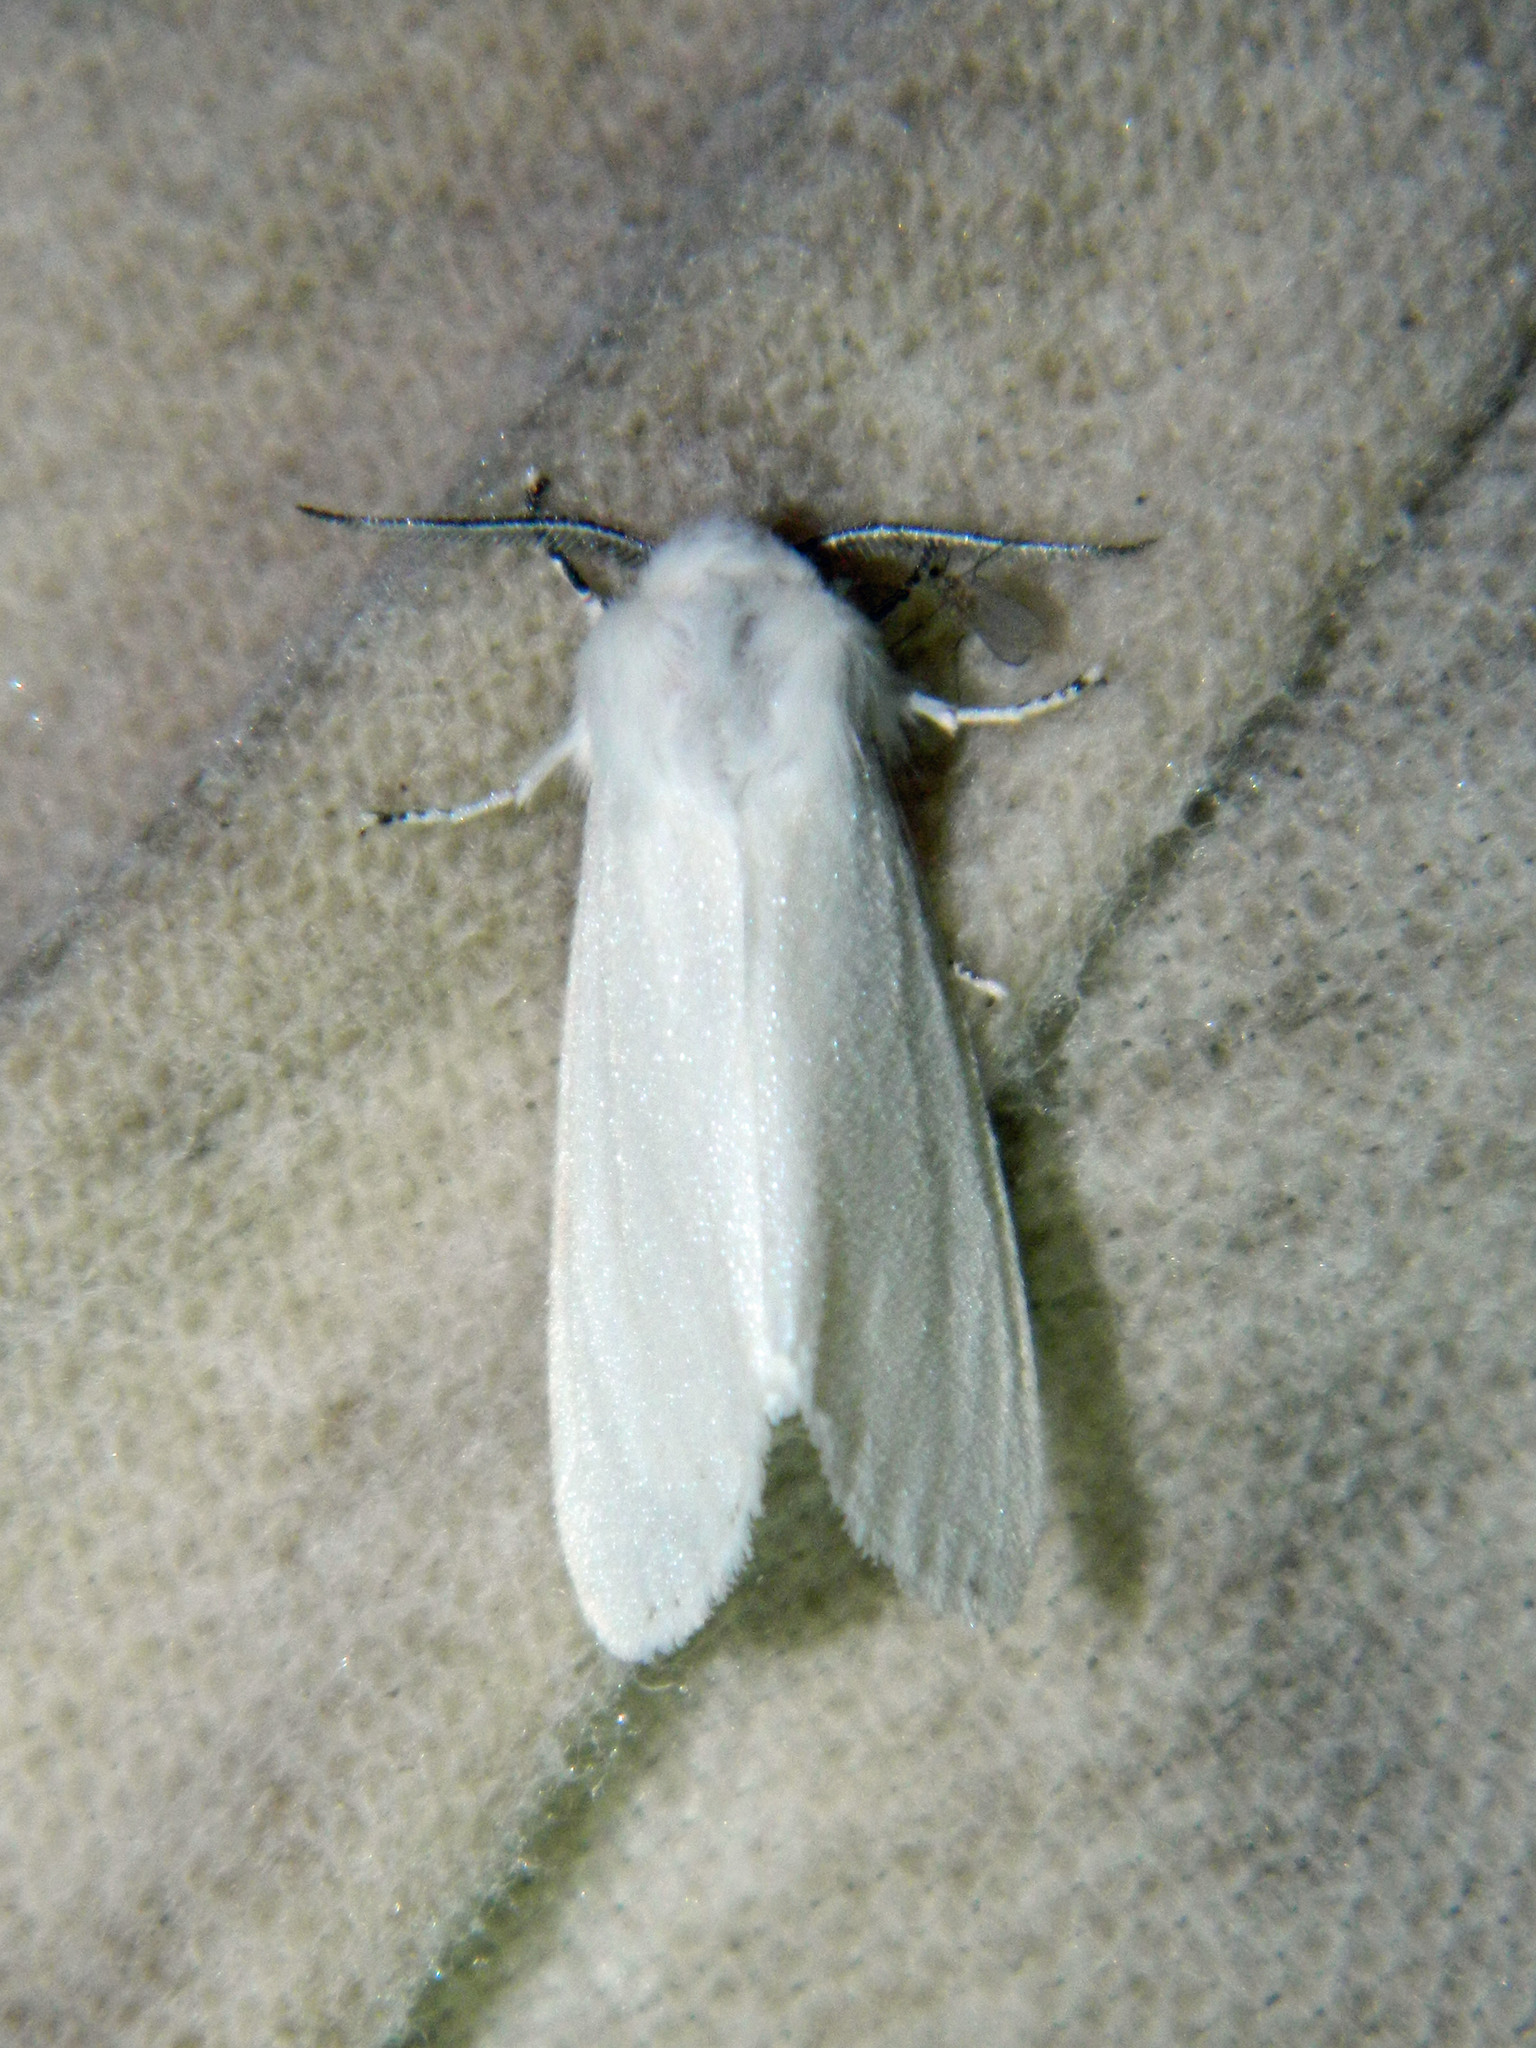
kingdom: Animalia
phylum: Arthropoda
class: Insecta
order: Lepidoptera
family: Erebidae
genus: Hyphantria
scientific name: Hyphantria cunea
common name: American white moth
